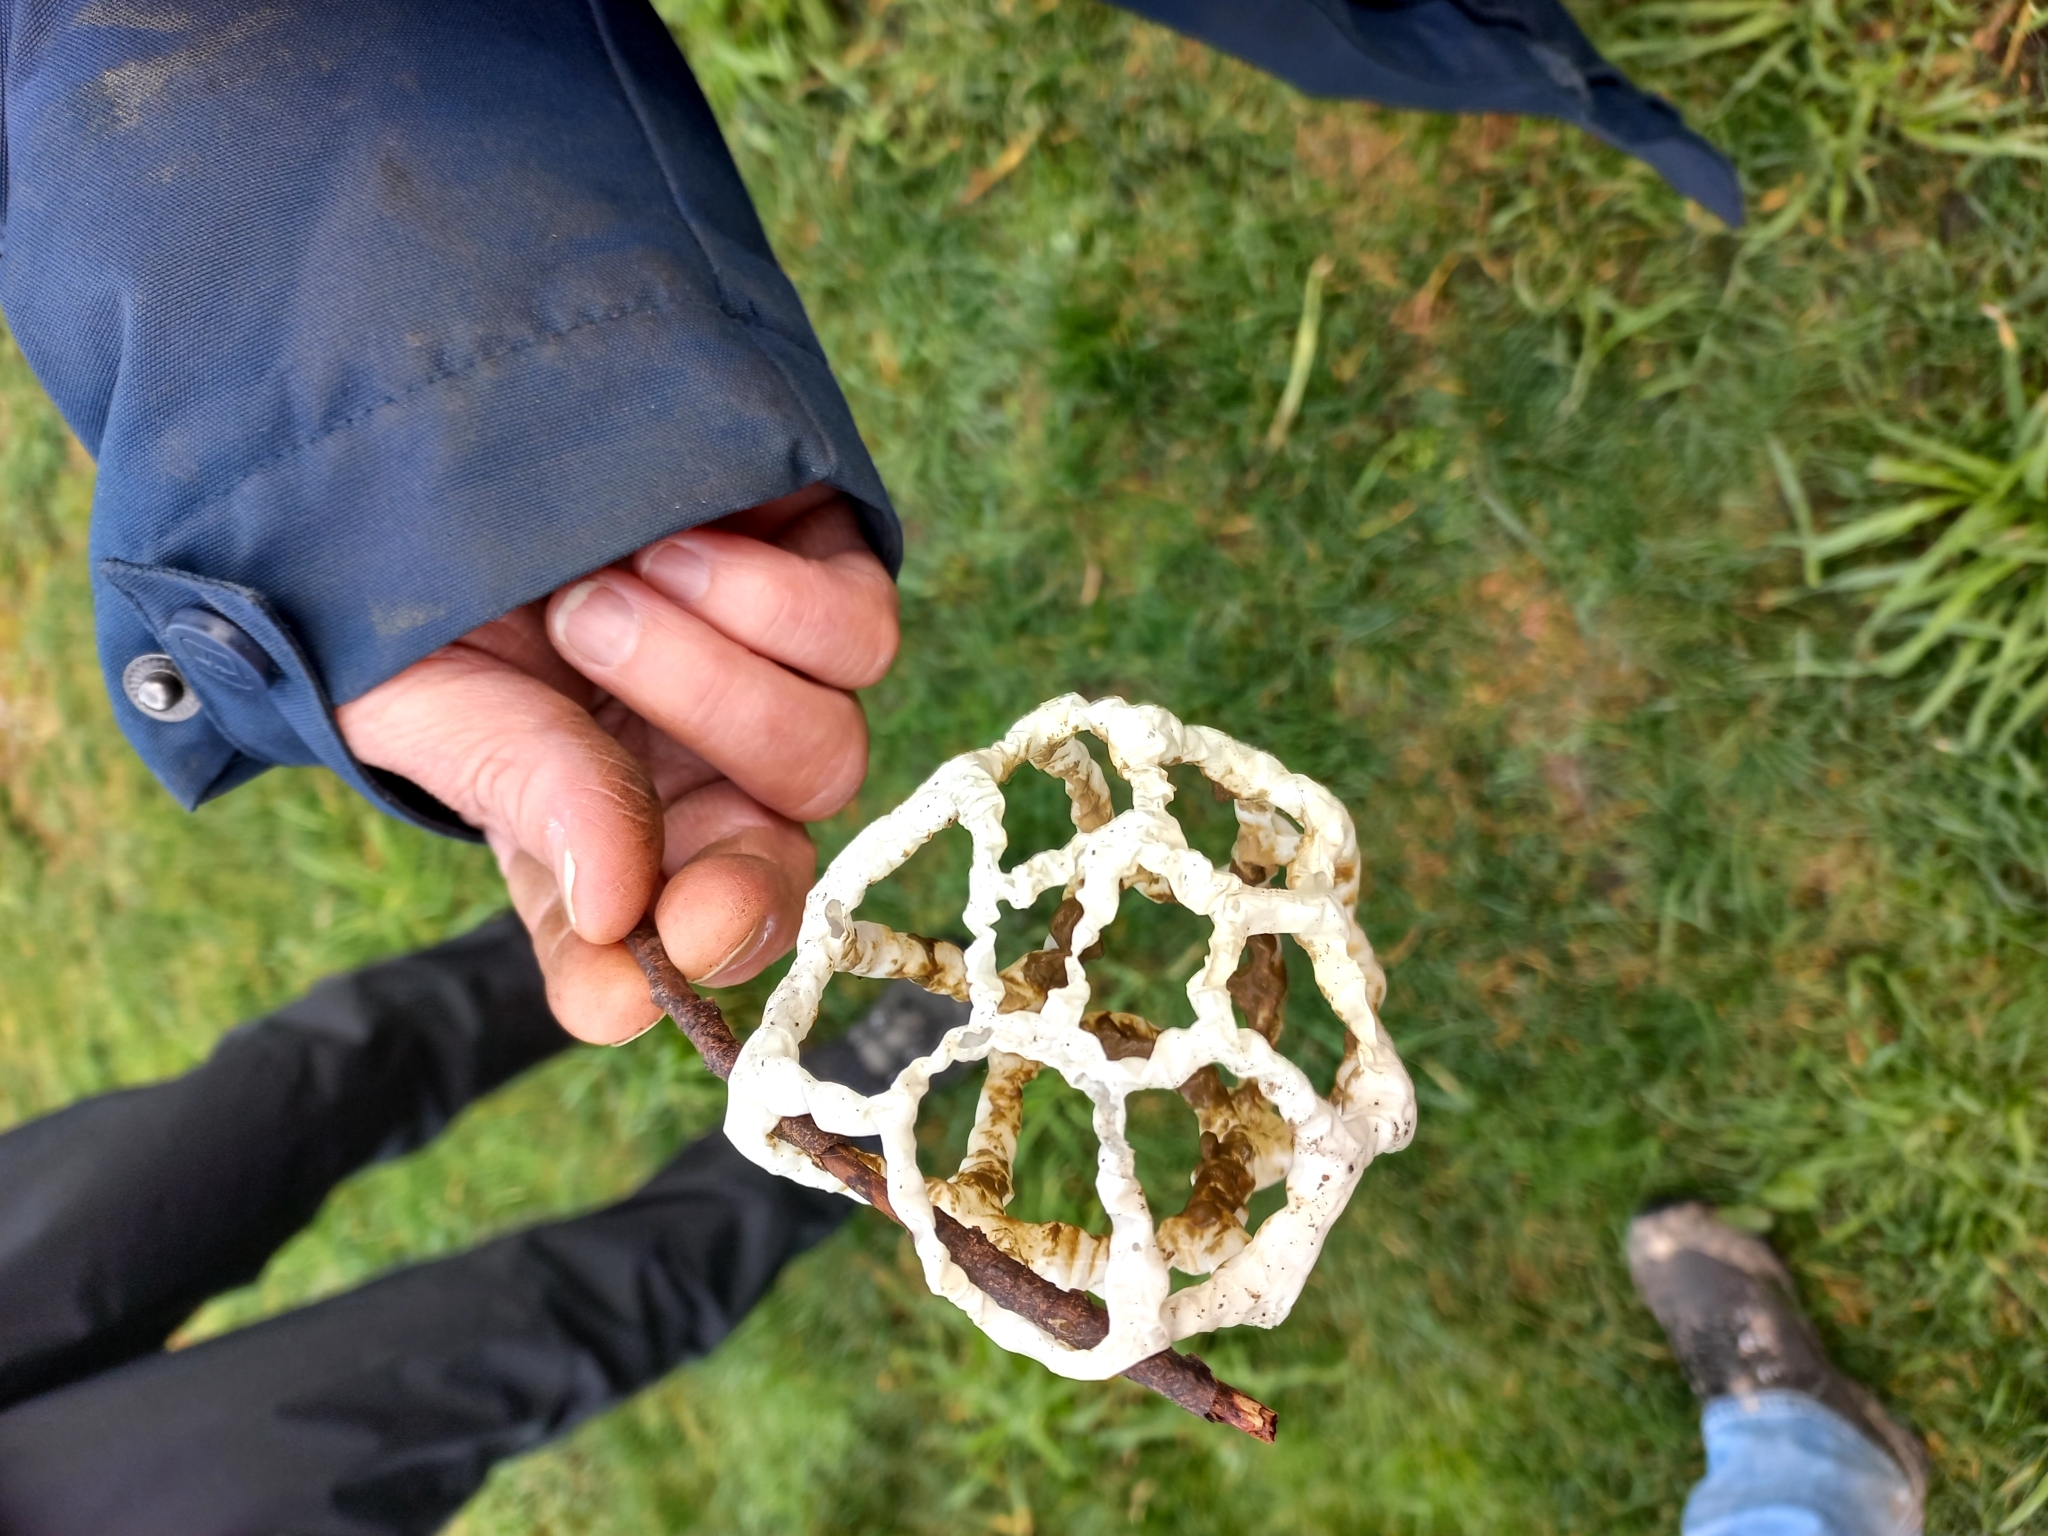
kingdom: Fungi
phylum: Basidiomycota
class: Agaricomycetes
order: Phallales
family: Phallaceae
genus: Ileodictyon
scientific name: Ileodictyon cibarium
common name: Basket fungus
